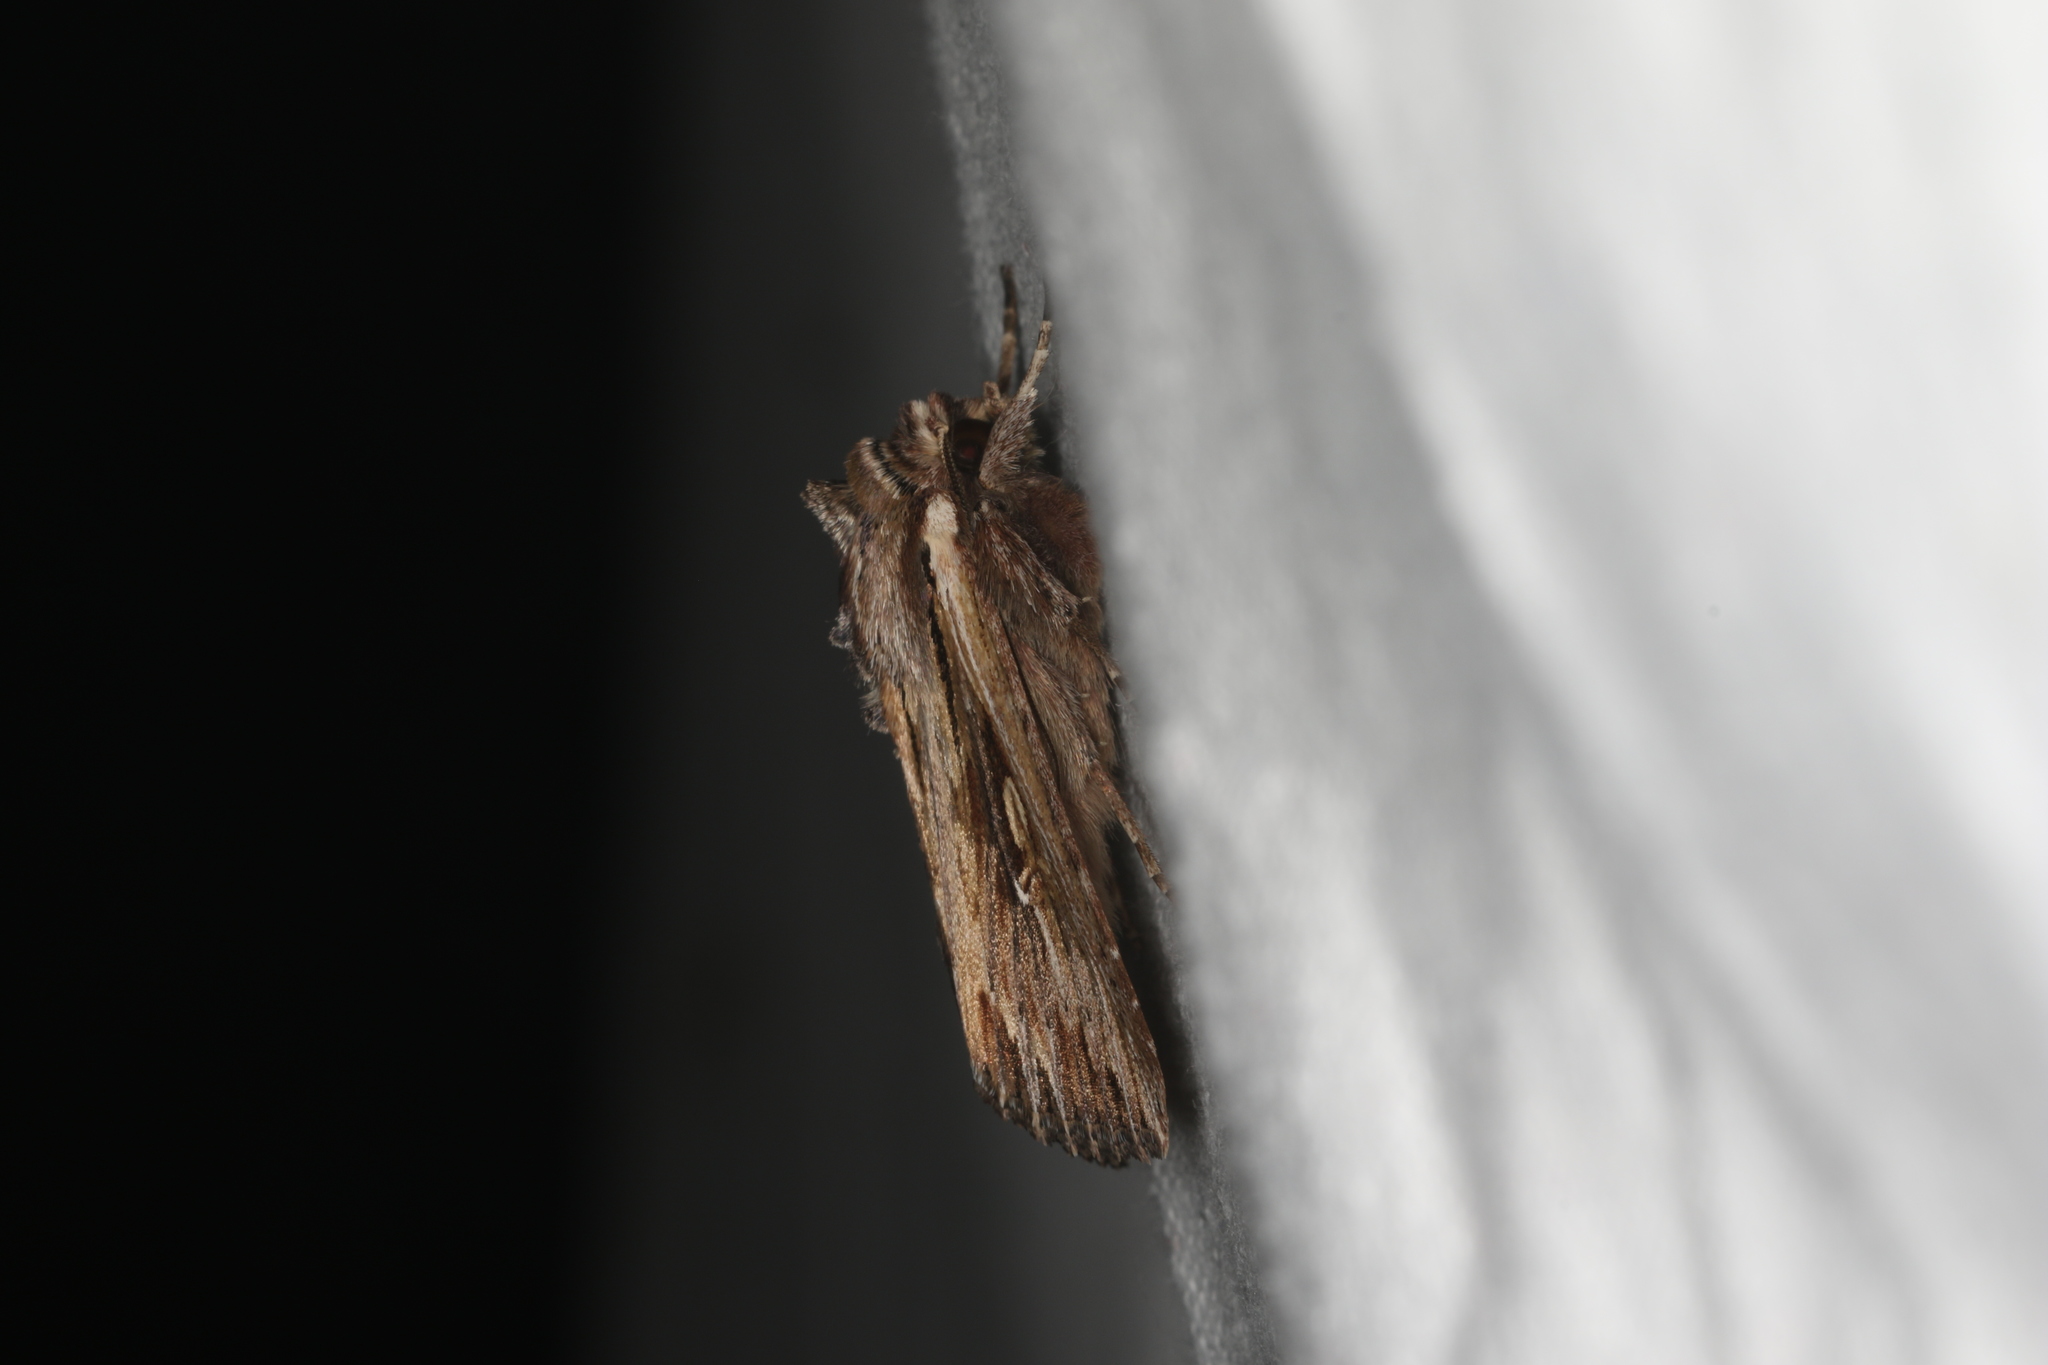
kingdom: Animalia
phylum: Arthropoda
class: Insecta
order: Lepidoptera
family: Noctuidae
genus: Persectania
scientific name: Persectania ewingii
